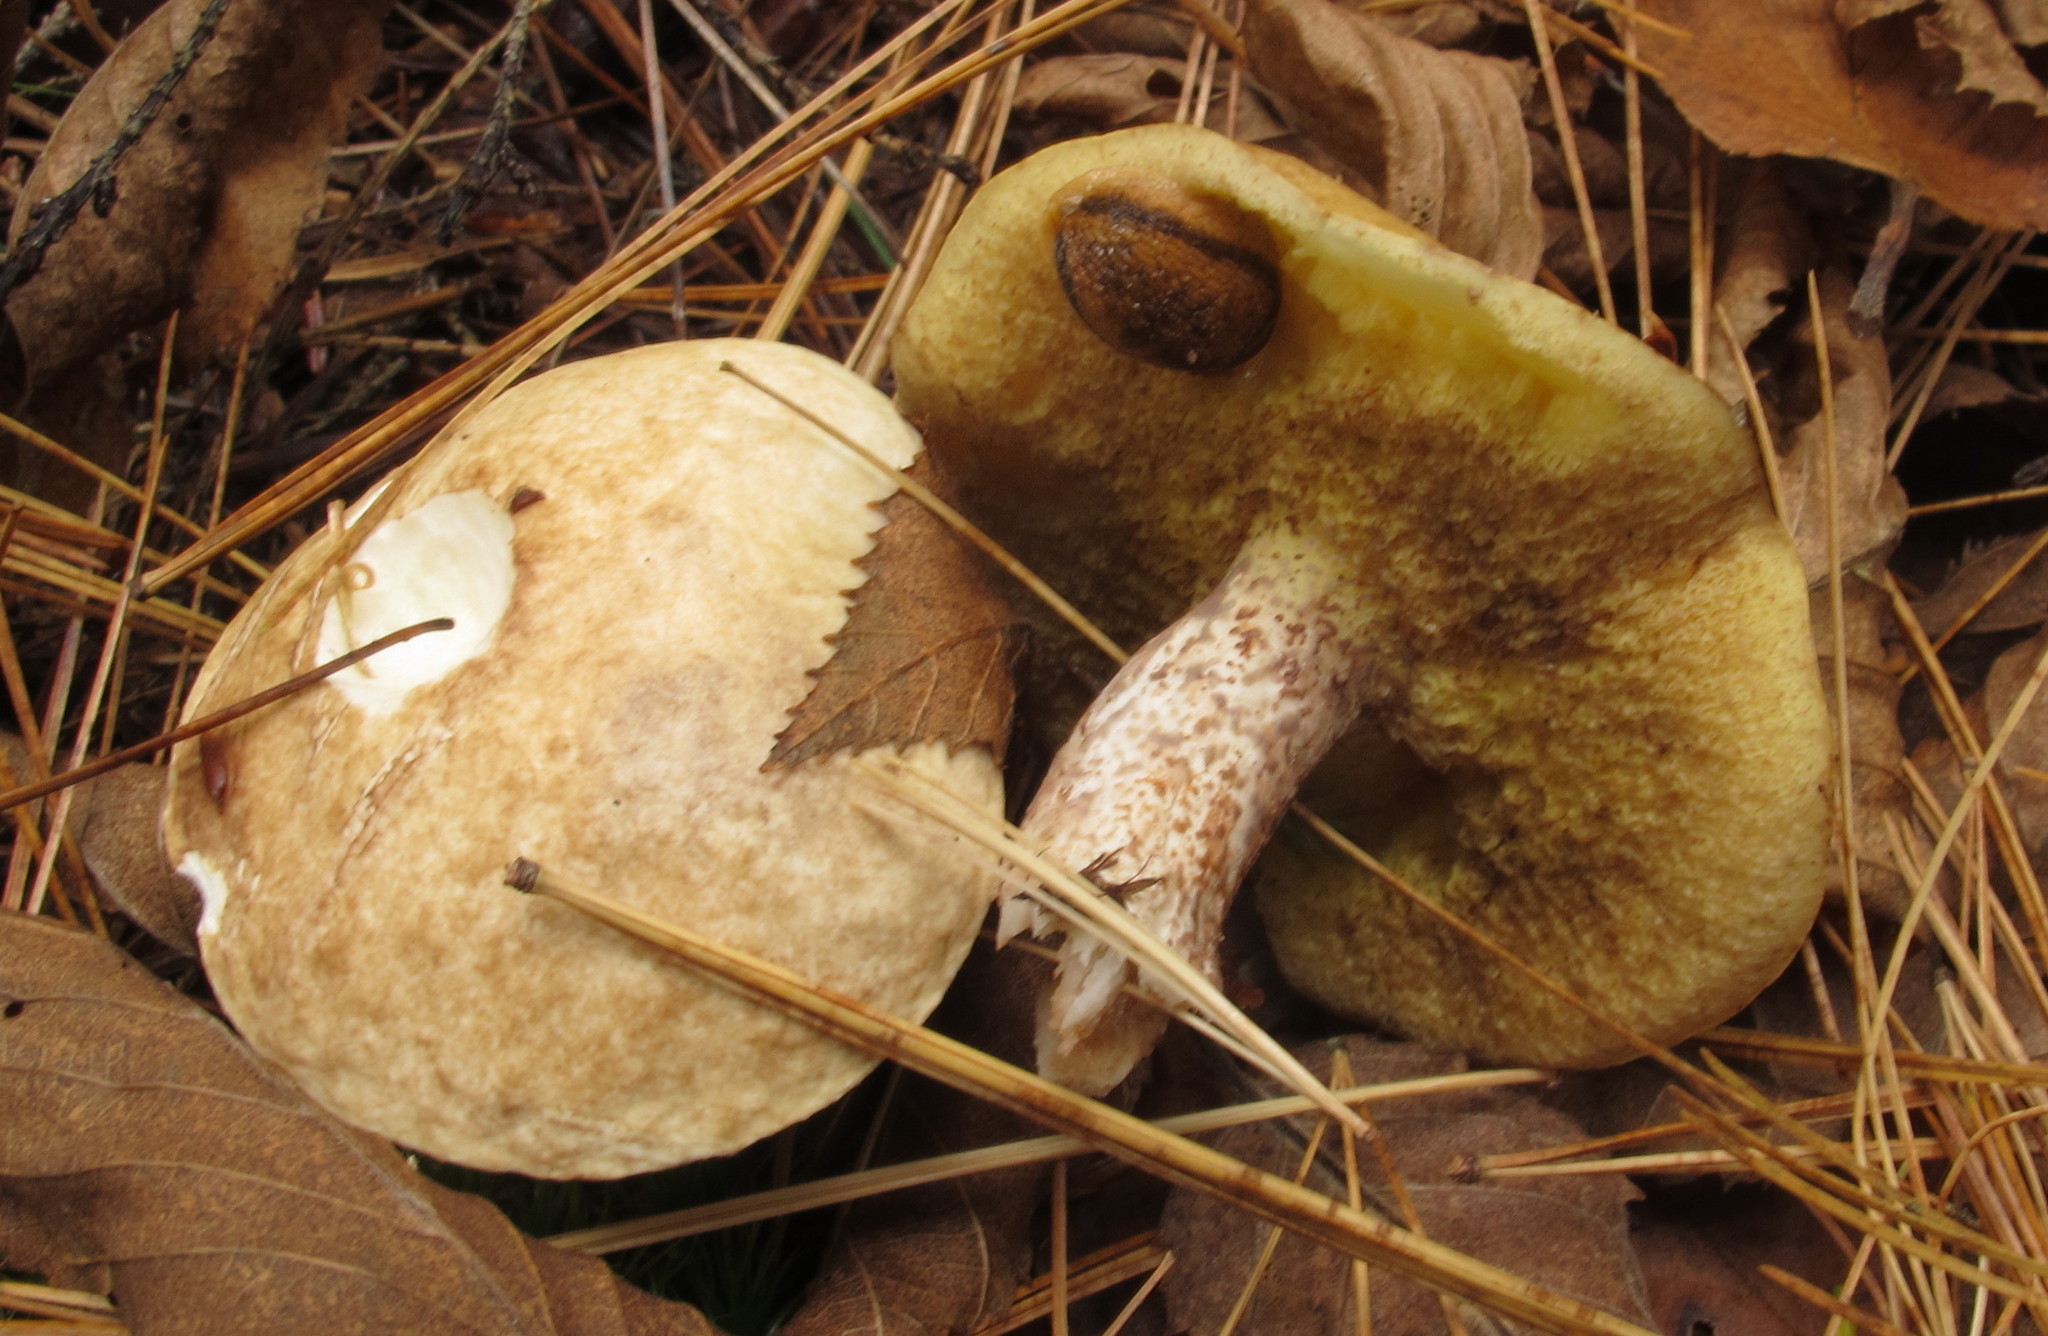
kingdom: Fungi
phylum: Basidiomycota
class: Agaricomycetes
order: Boletales
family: Suillaceae
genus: Suillus
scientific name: Suillus placidus
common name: Slippery white bolete
